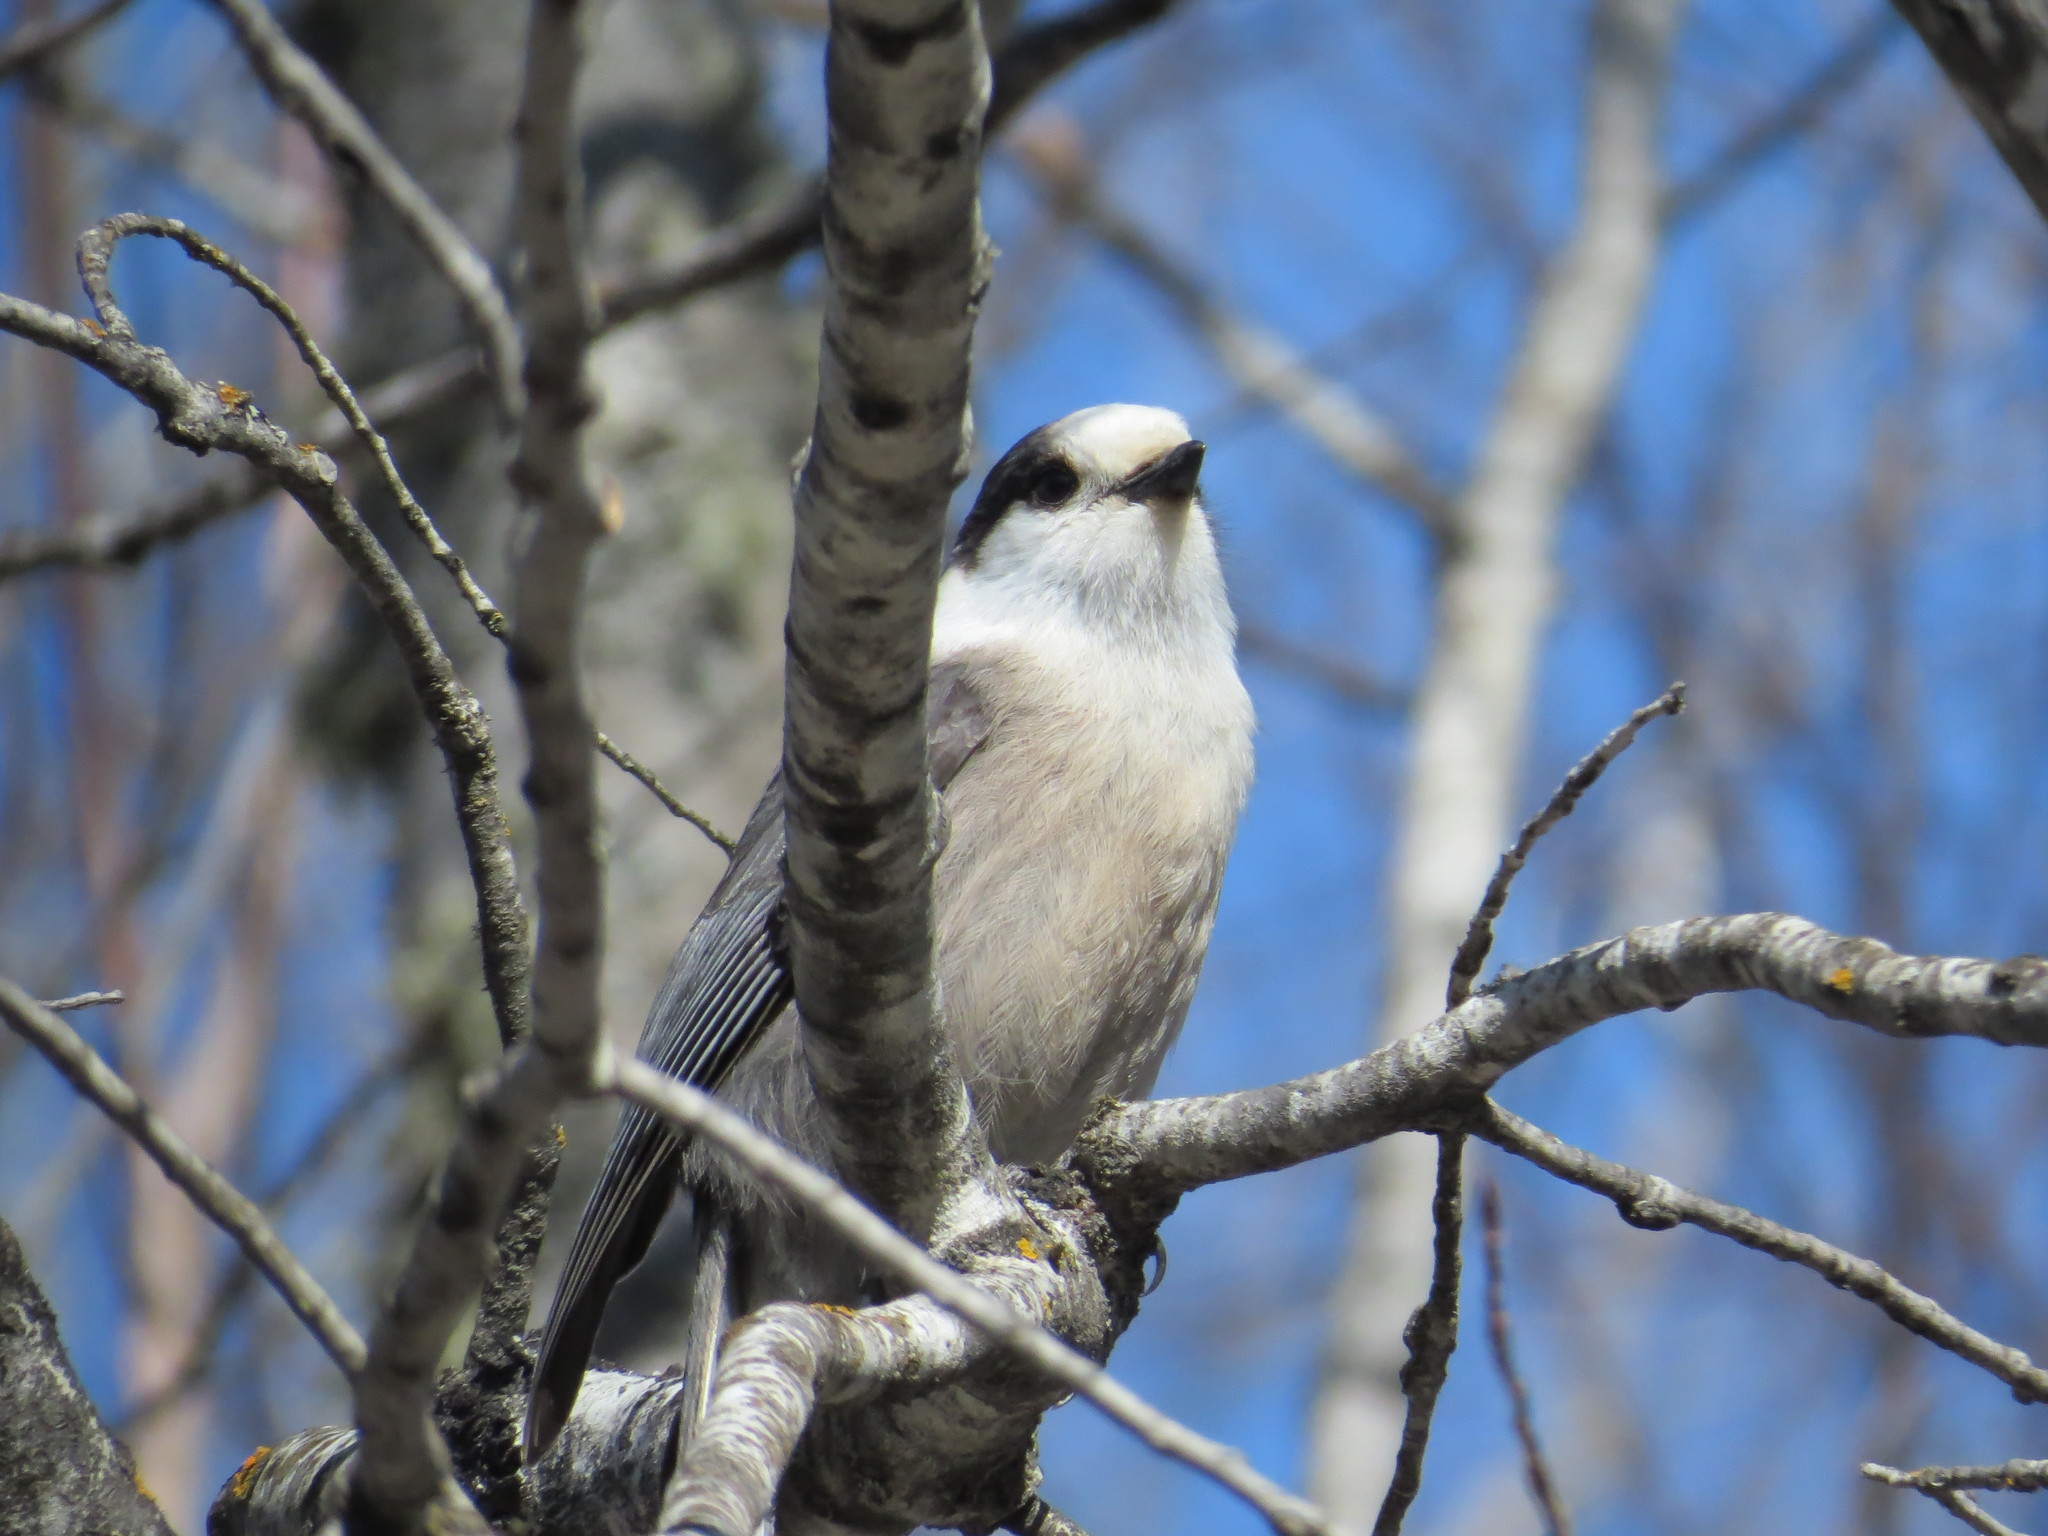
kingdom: Animalia
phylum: Chordata
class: Aves
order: Passeriformes
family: Corvidae
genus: Perisoreus
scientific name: Perisoreus canadensis
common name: Gray jay
